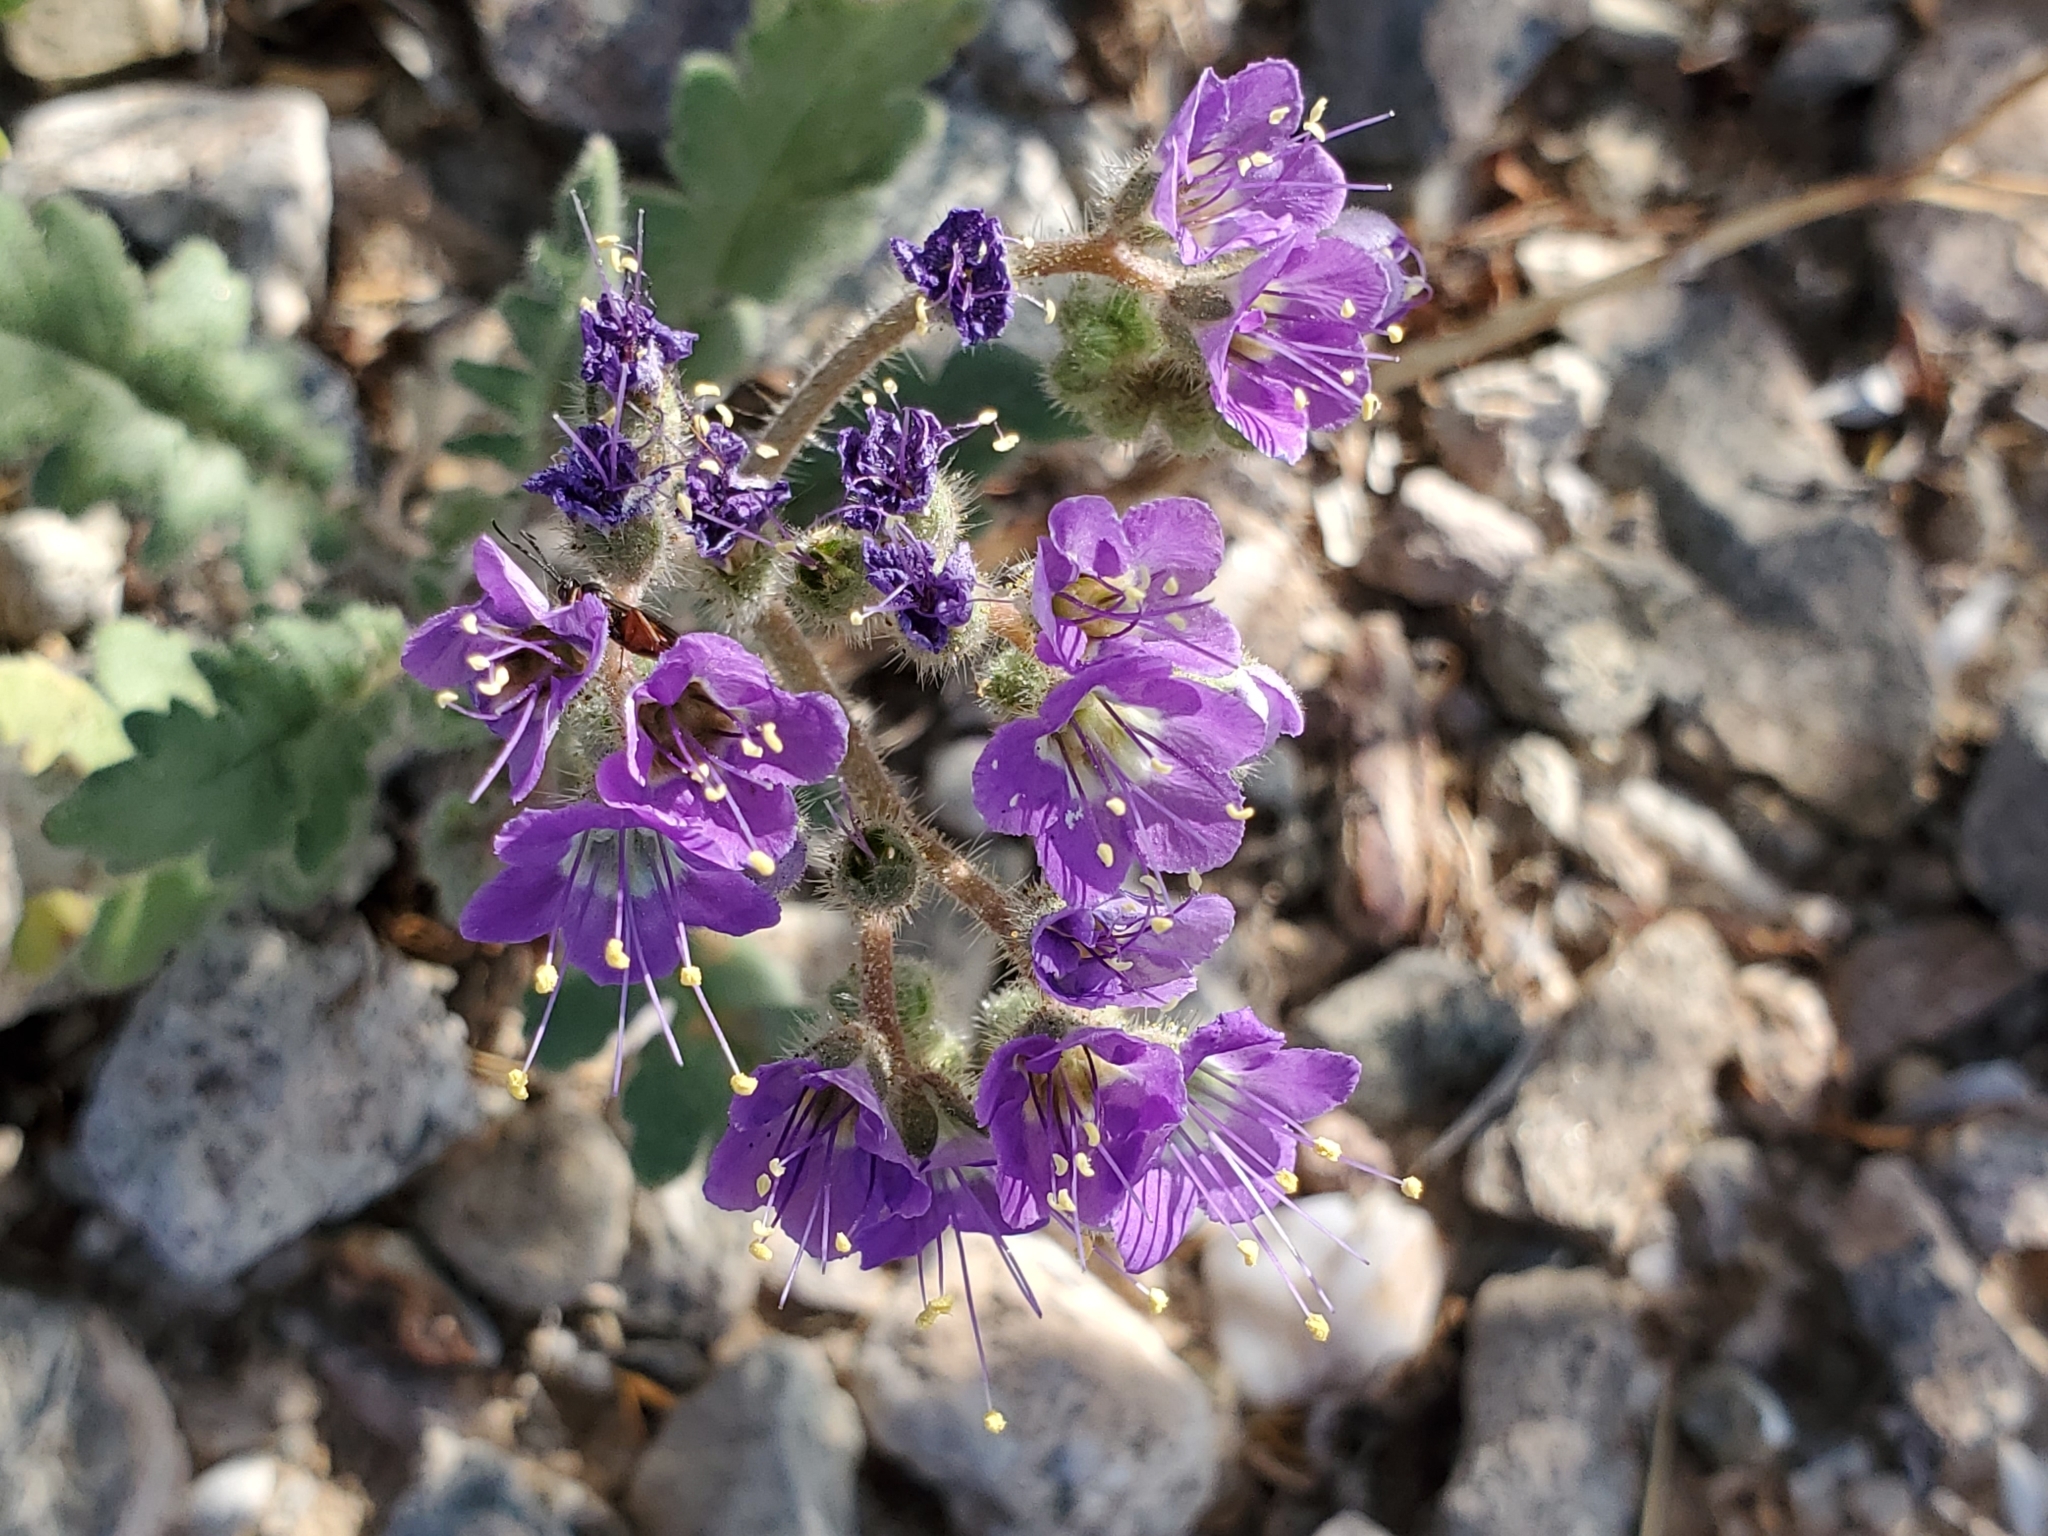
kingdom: Plantae
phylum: Tracheophyta
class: Magnoliopsida
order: Boraginales
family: Hydrophyllaceae
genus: Phacelia
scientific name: Phacelia crenulata
